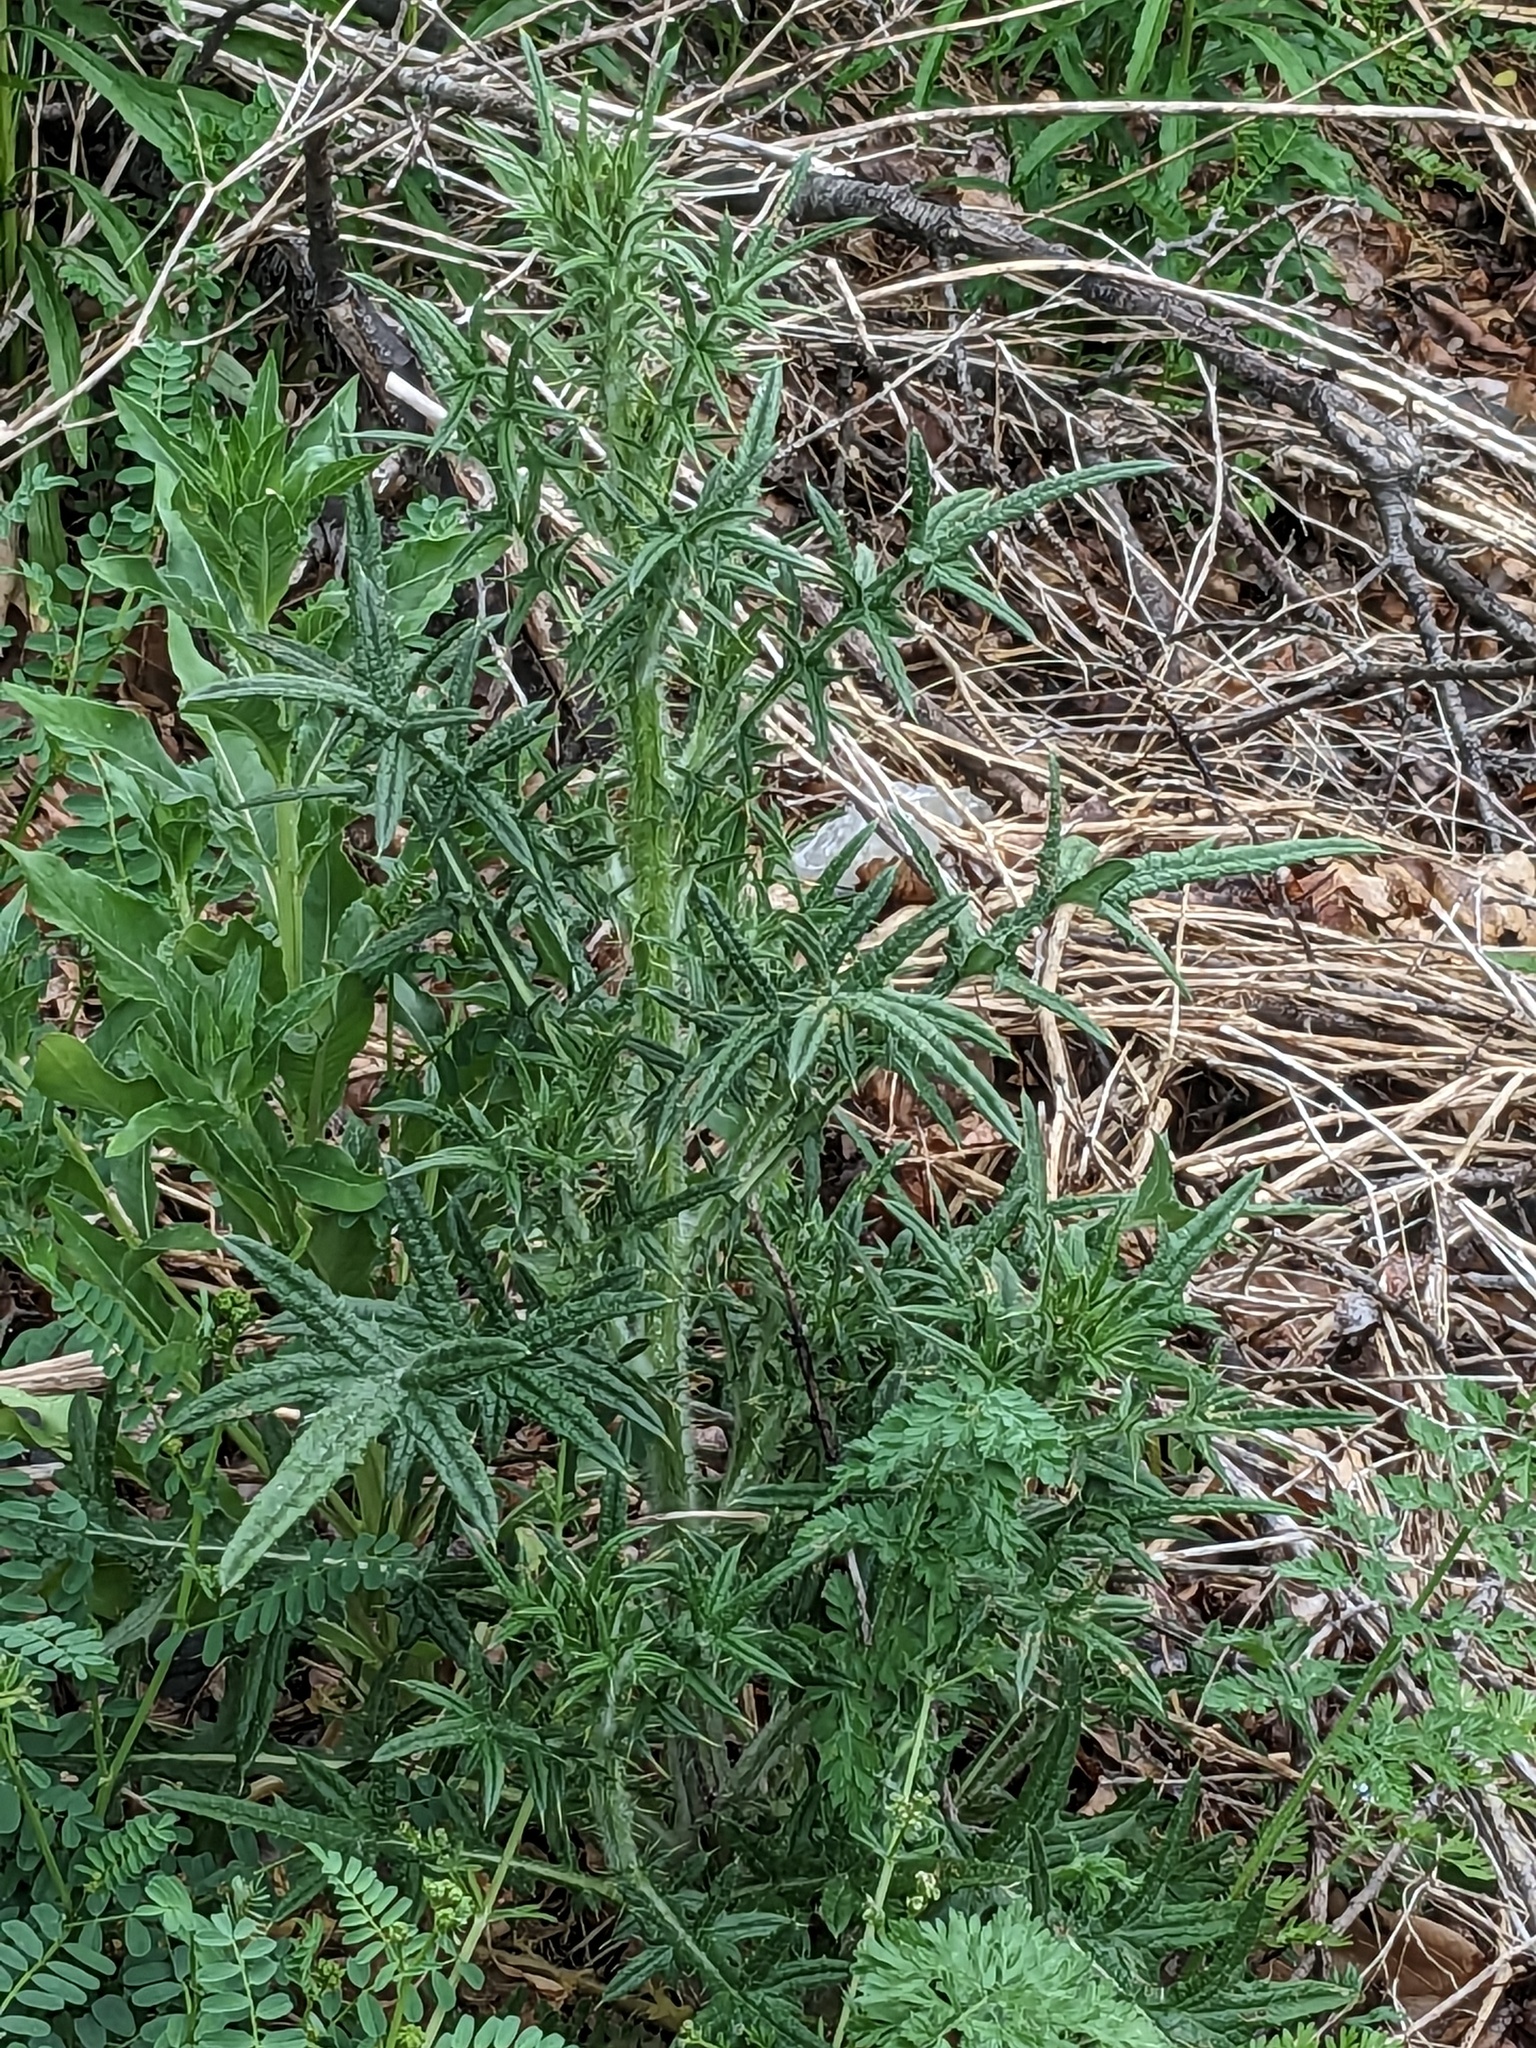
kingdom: Plantae
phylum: Tracheophyta
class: Magnoliopsida
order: Asterales
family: Asteraceae
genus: Cirsium
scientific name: Cirsium vulgare
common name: Bull thistle
